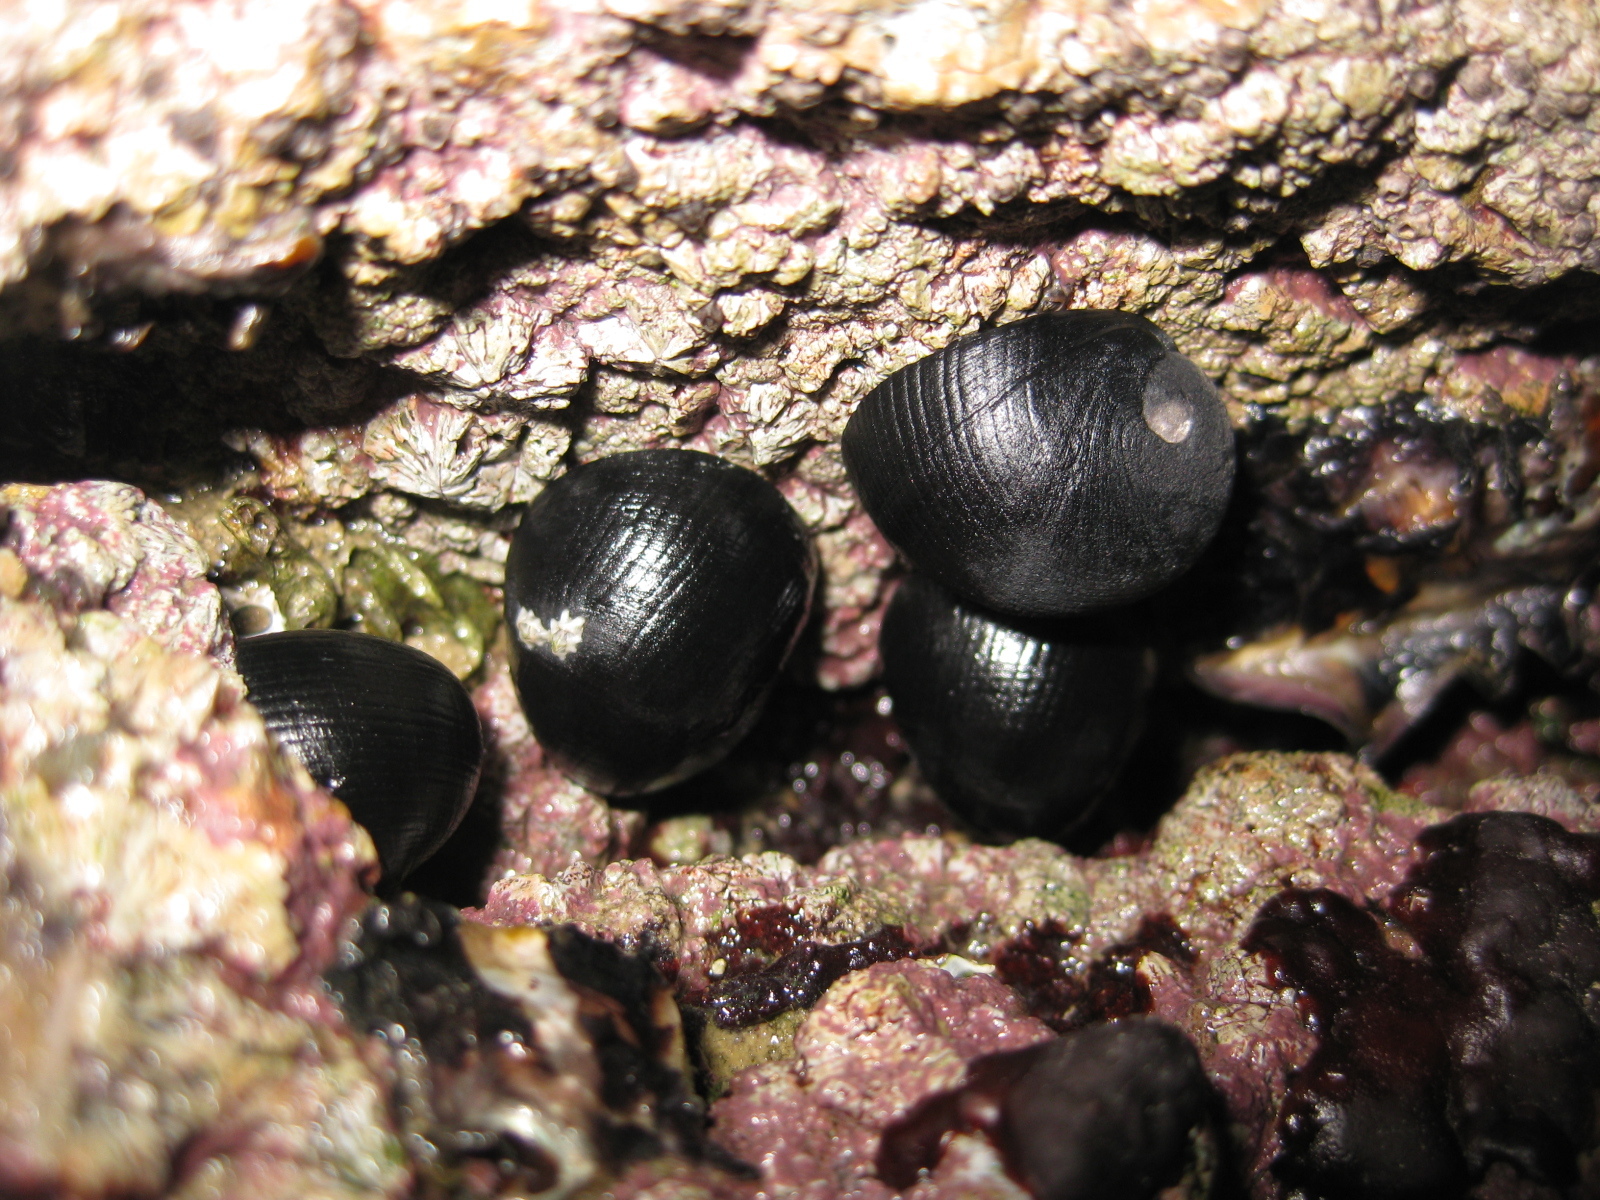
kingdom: Animalia
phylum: Mollusca
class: Gastropoda
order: Cycloneritida
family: Neritidae
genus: Nerita
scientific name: Nerita melanotragus
